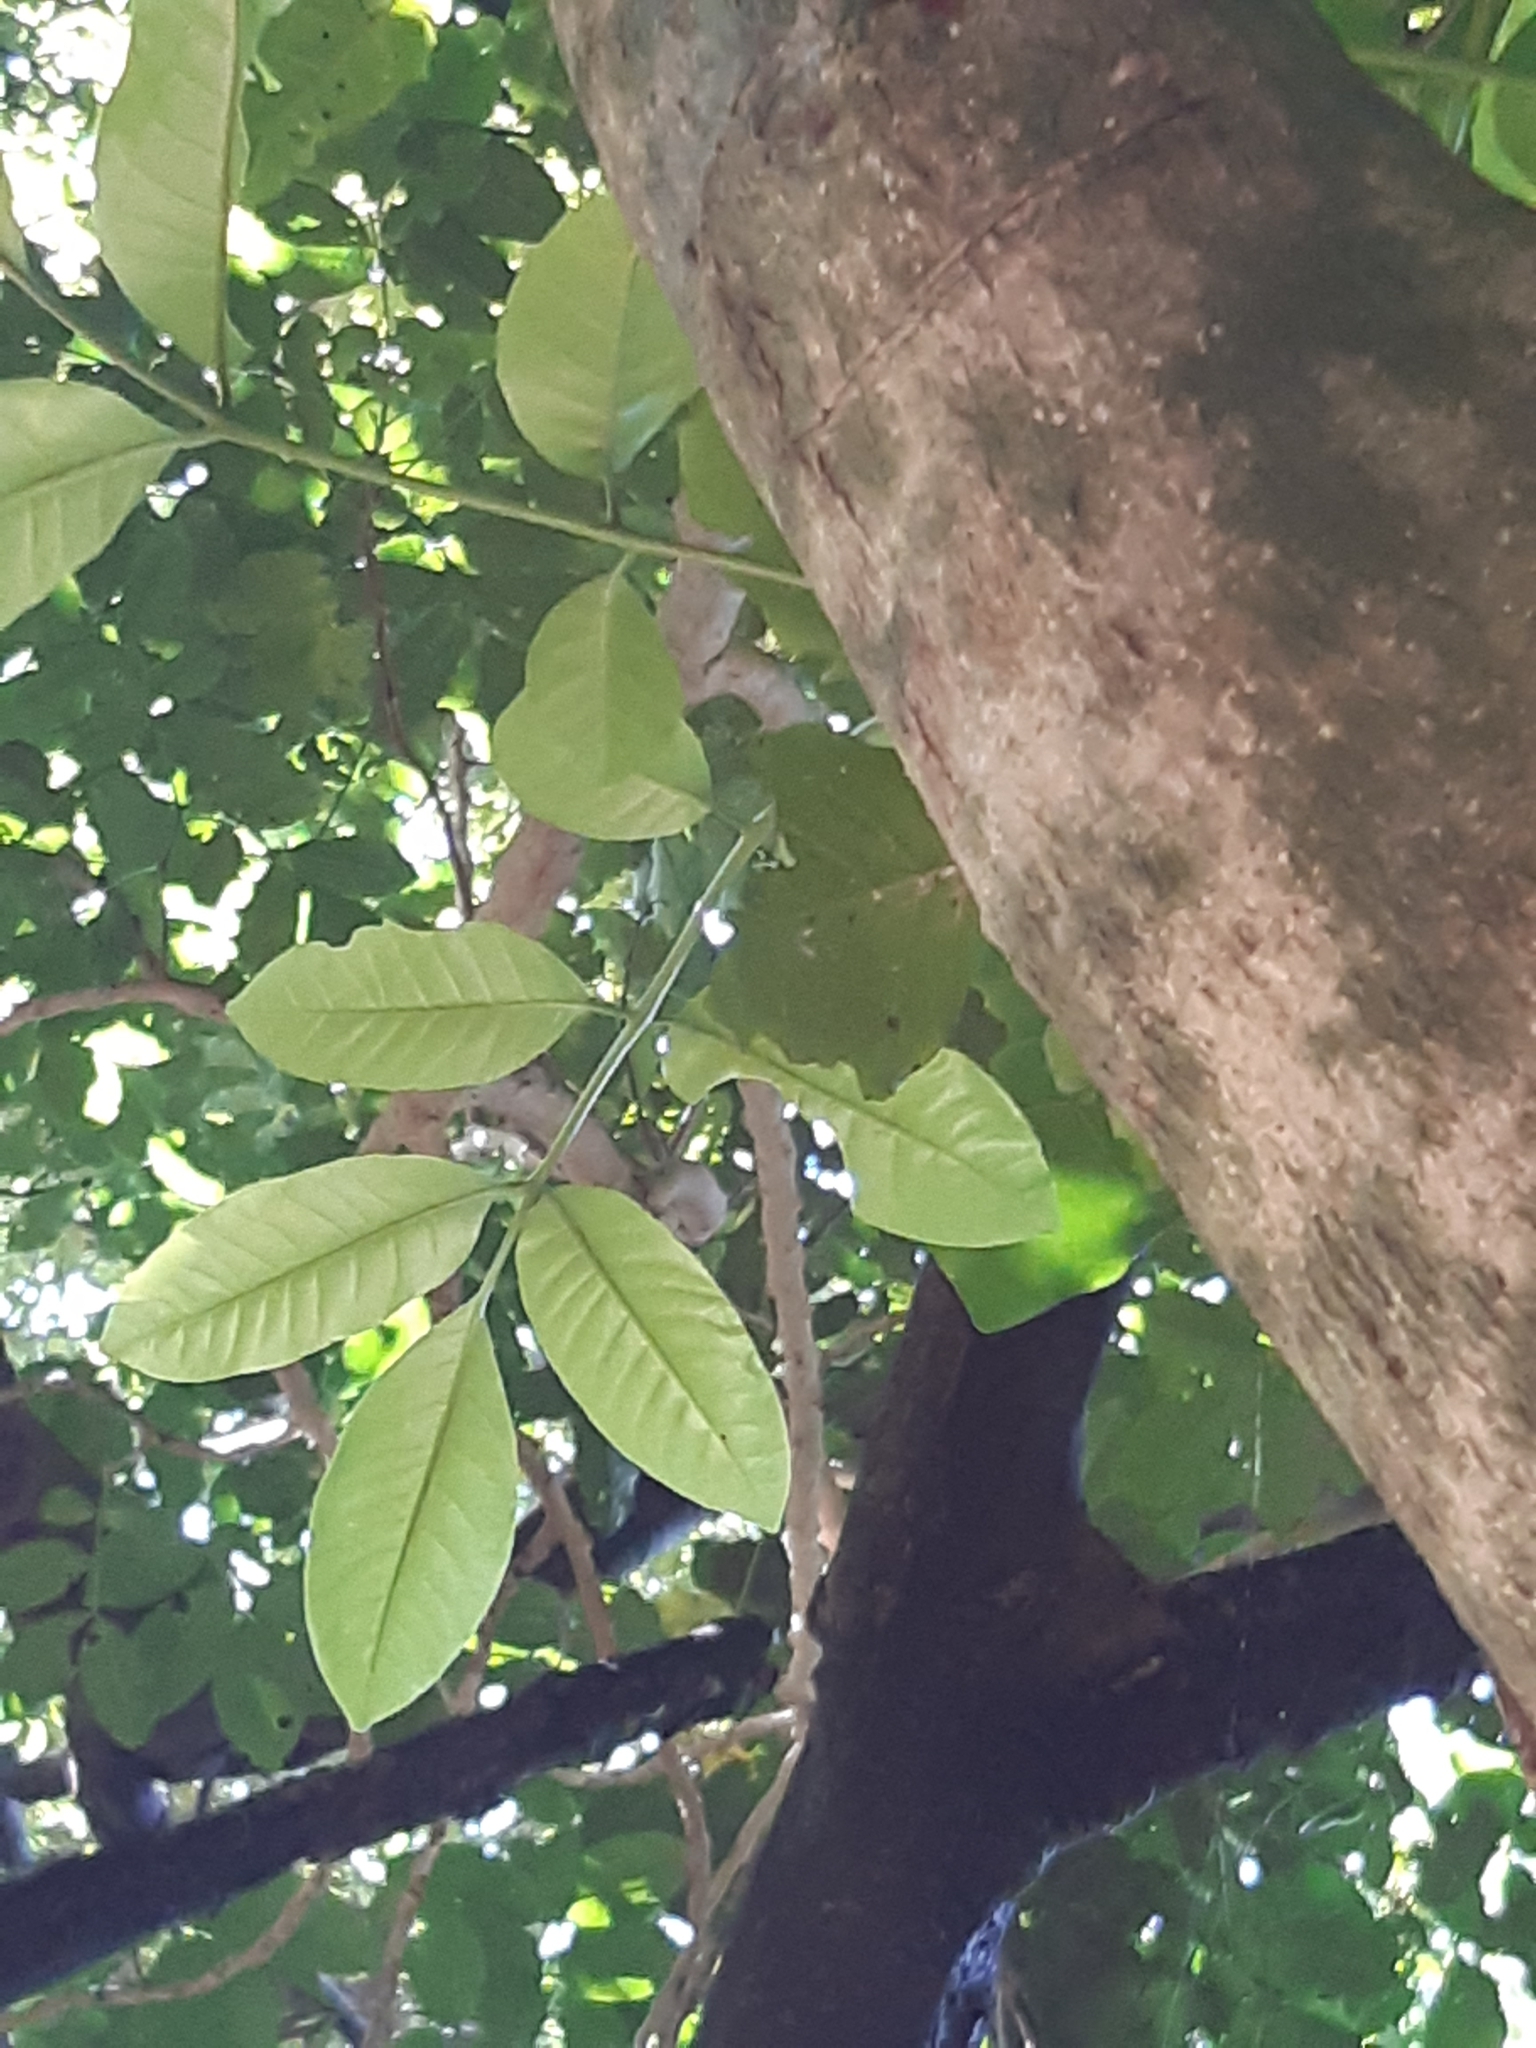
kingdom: Plantae
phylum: Tracheophyta
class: Magnoliopsida
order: Sapindales
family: Meliaceae
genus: Didymocheton
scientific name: Didymocheton spectabilis
